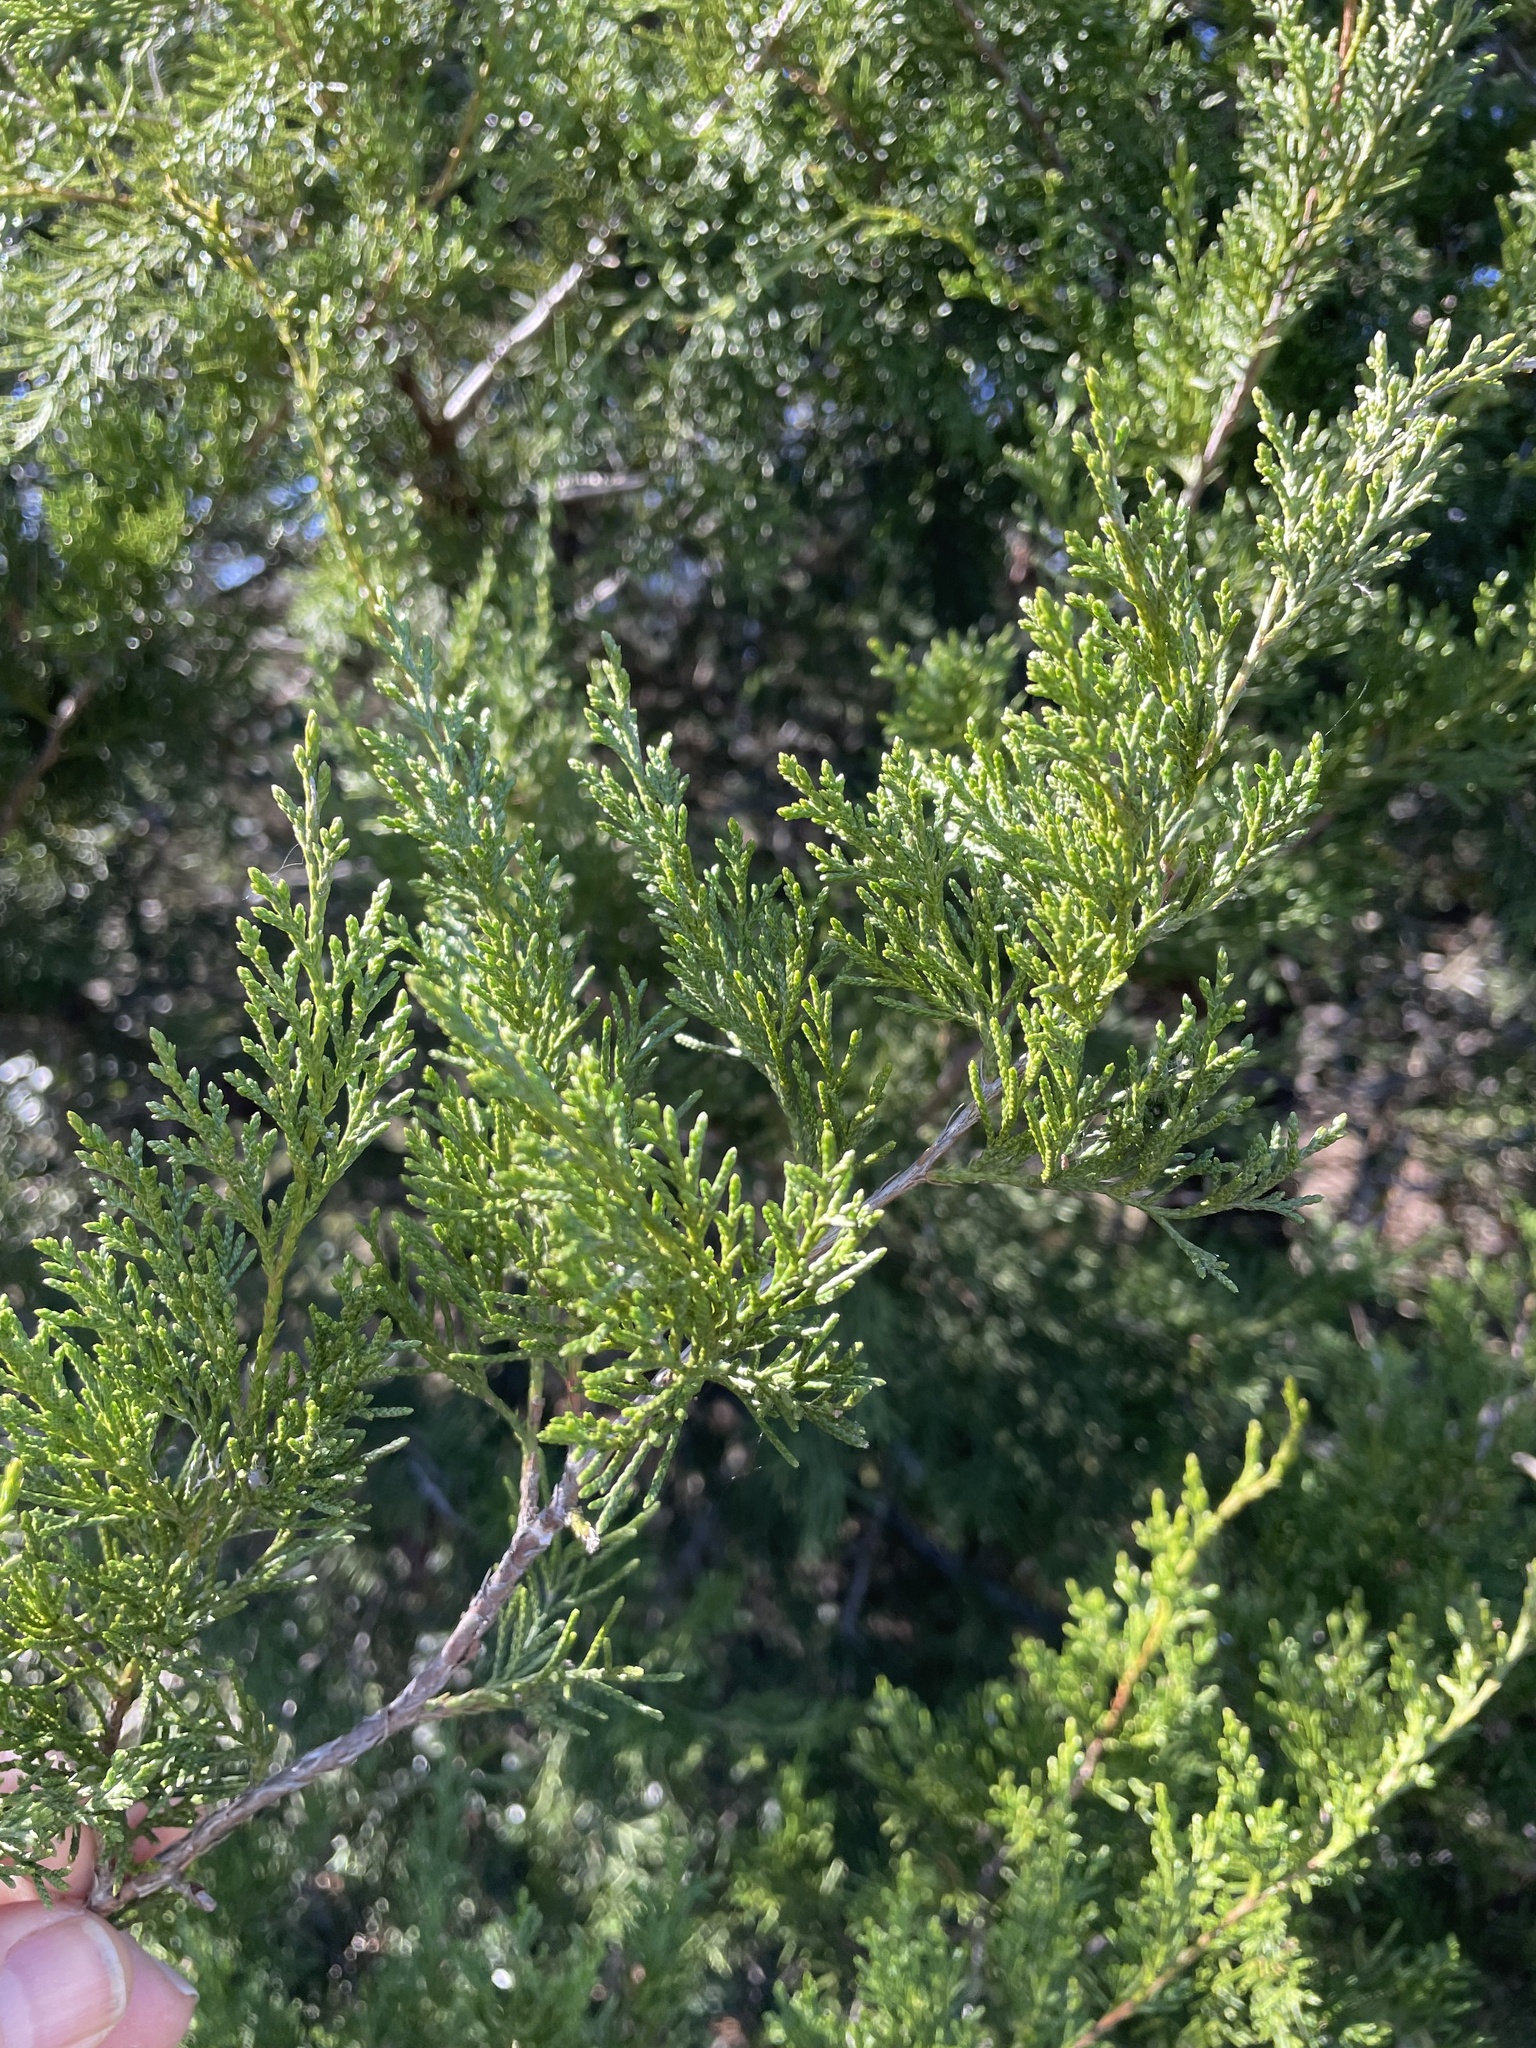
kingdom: Plantae
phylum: Tracheophyta
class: Pinopsida
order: Pinales
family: Cupressaceae
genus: Juniperus
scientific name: Juniperus virginiana
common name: Red juniper
